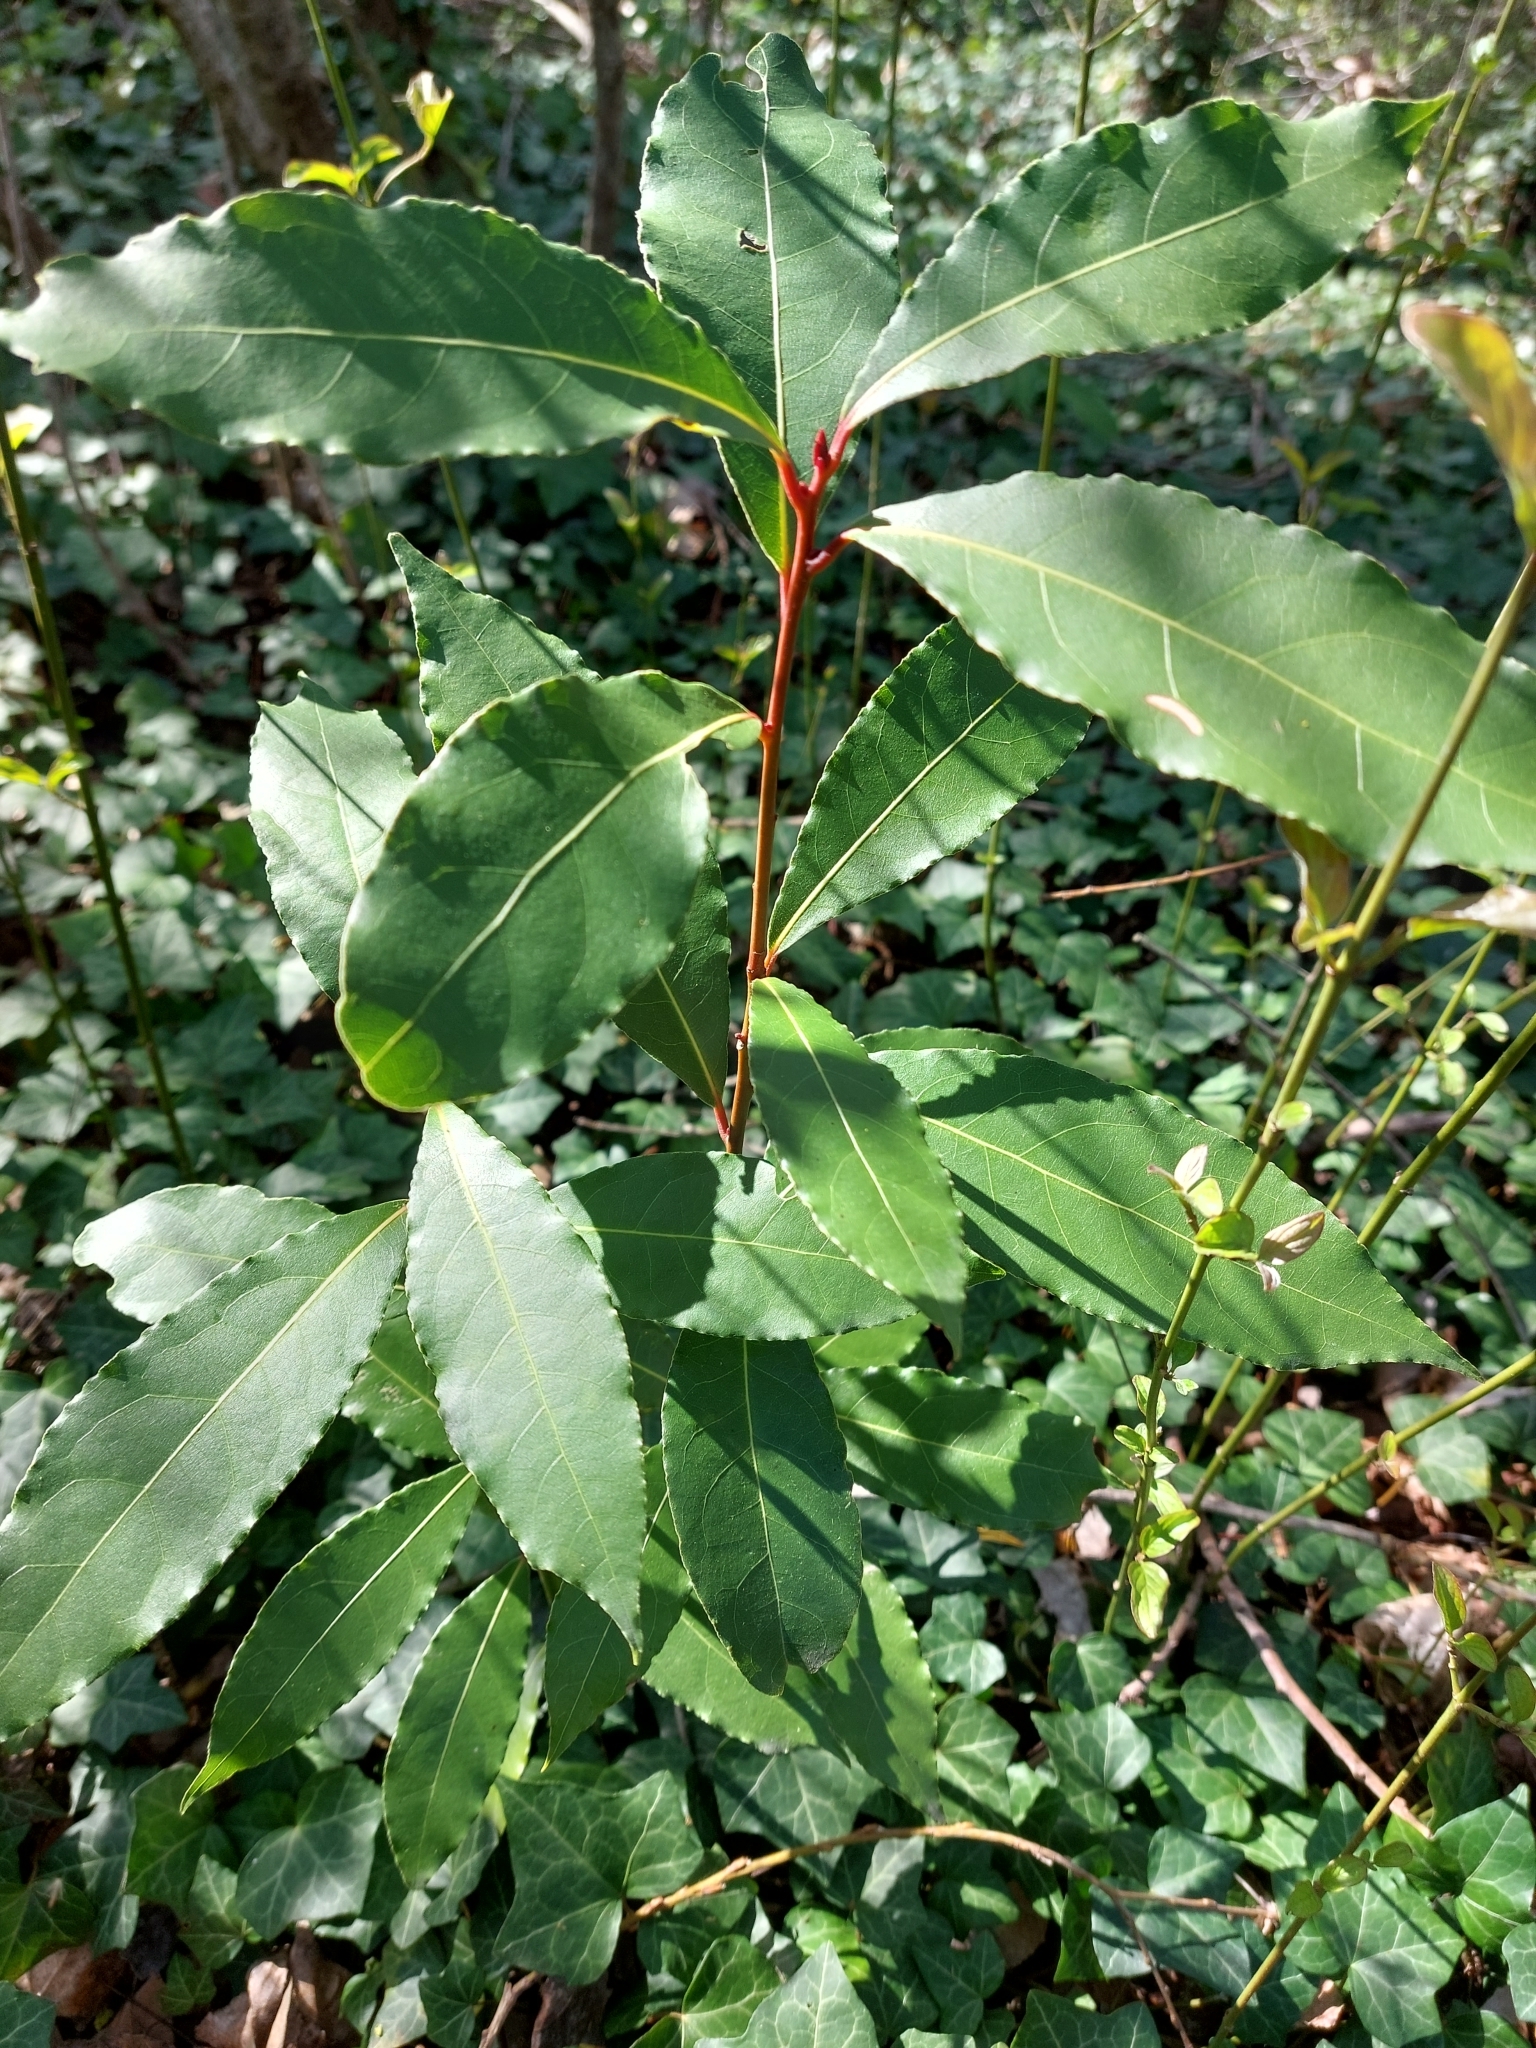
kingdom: Plantae
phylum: Tracheophyta
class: Magnoliopsida
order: Laurales
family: Lauraceae
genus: Laurus
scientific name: Laurus nobilis
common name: Bay
